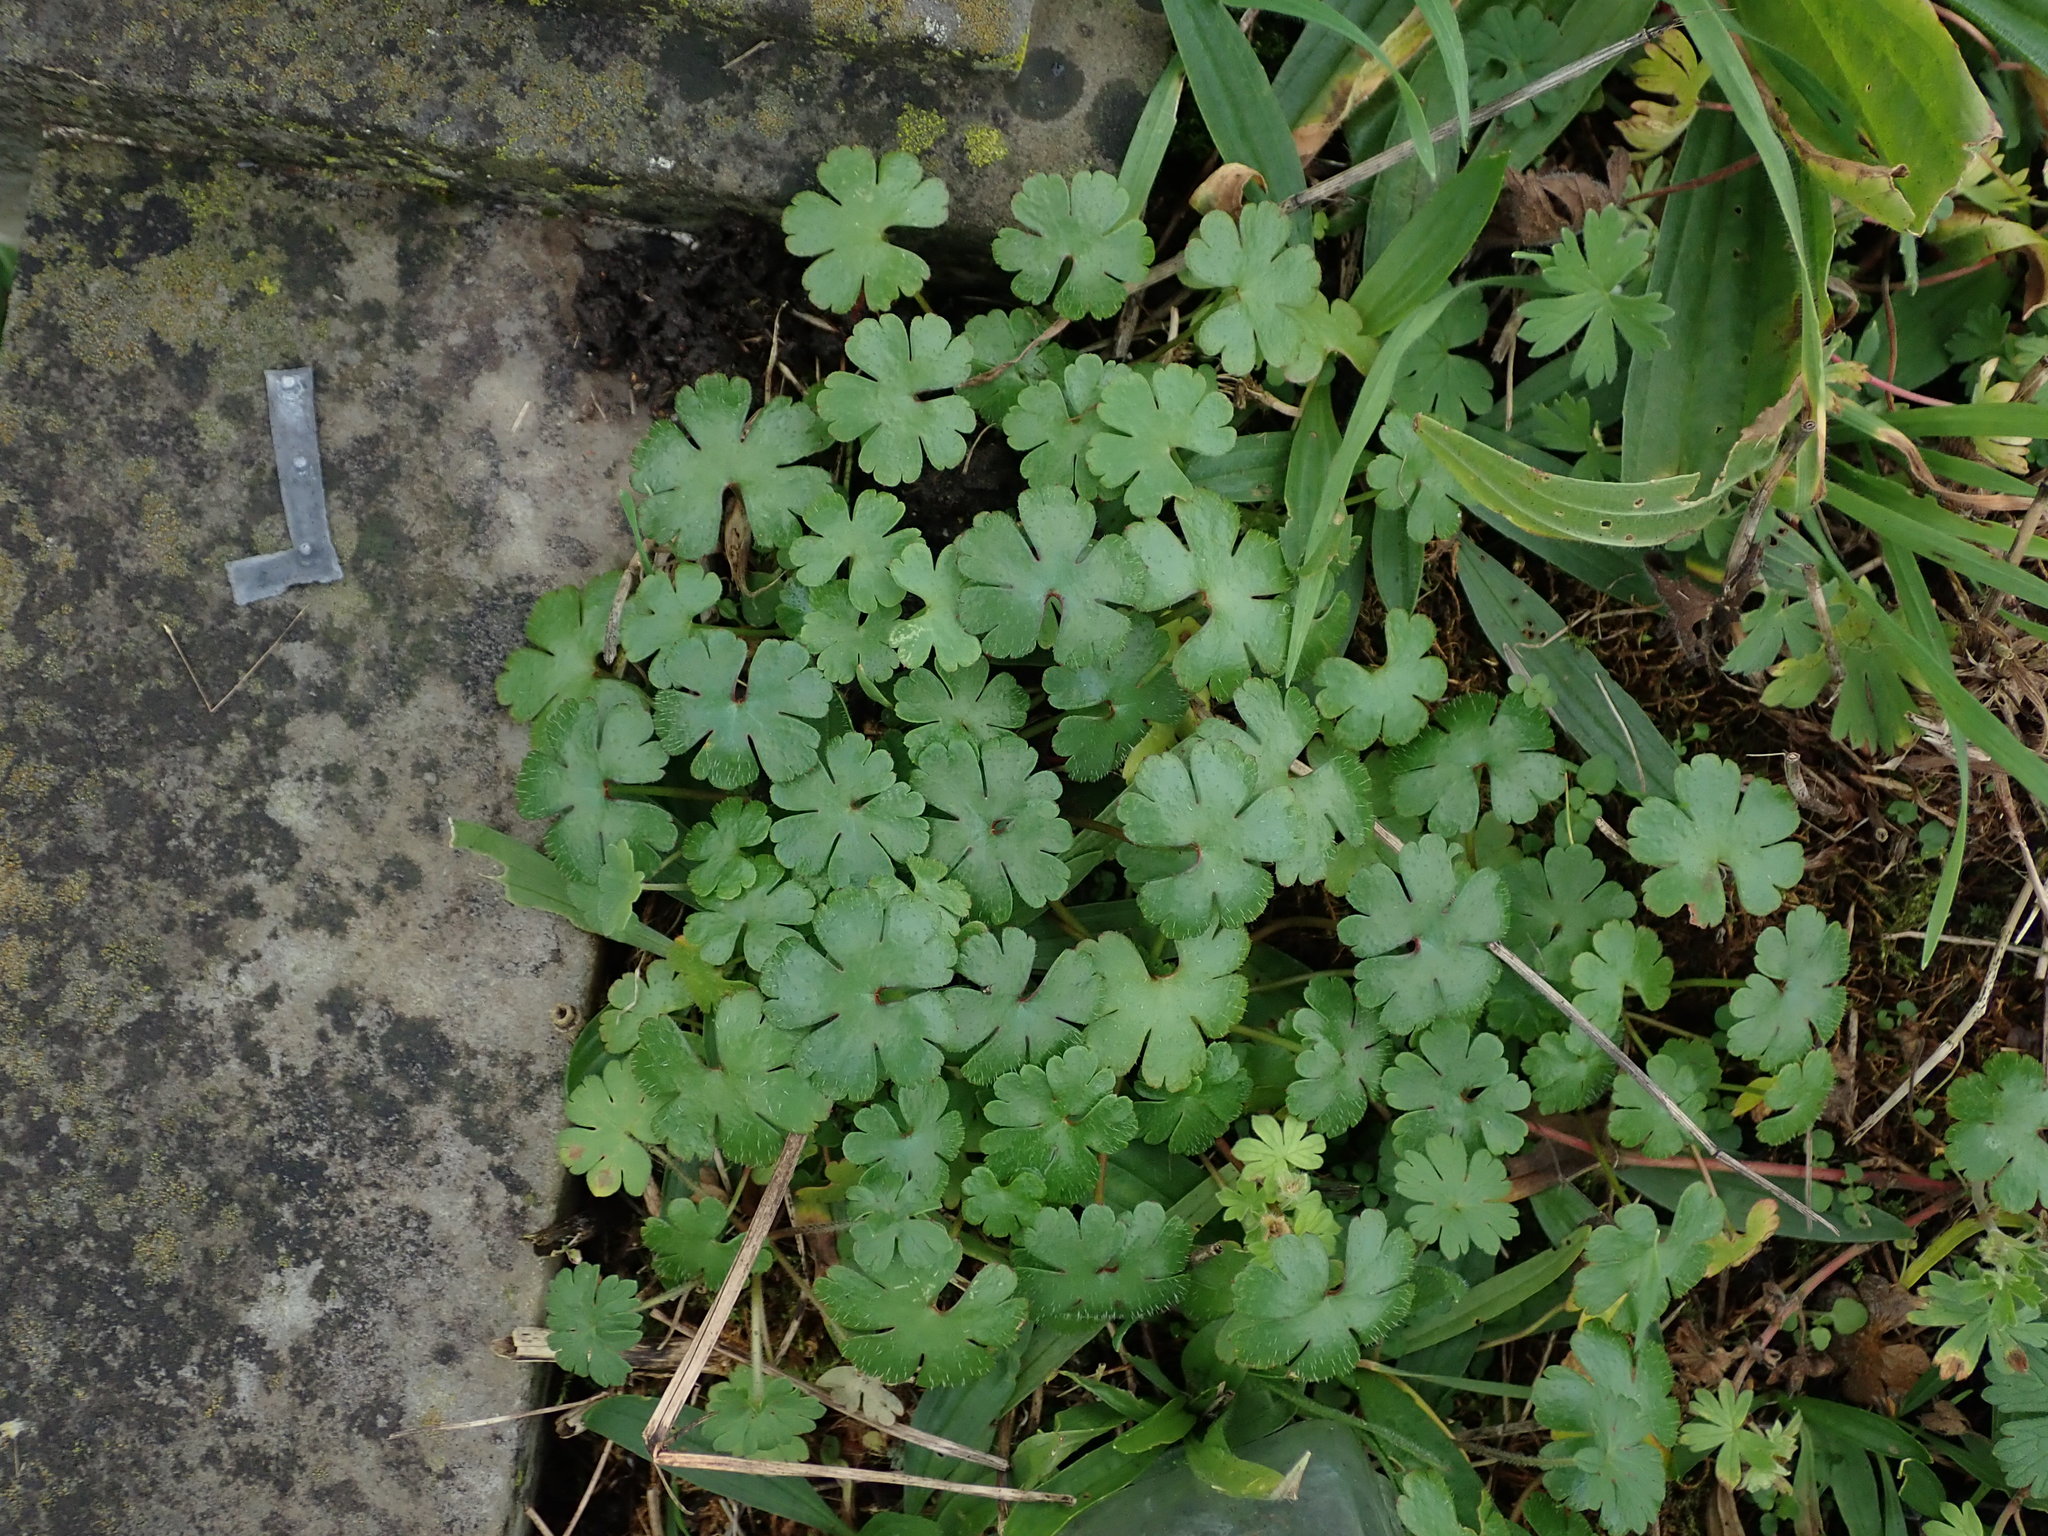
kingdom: Plantae
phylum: Tracheophyta
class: Magnoliopsida
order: Geraniales
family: Geraniaceae
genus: Geranium
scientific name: Geranium lucidum
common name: Shining crane's-bill
